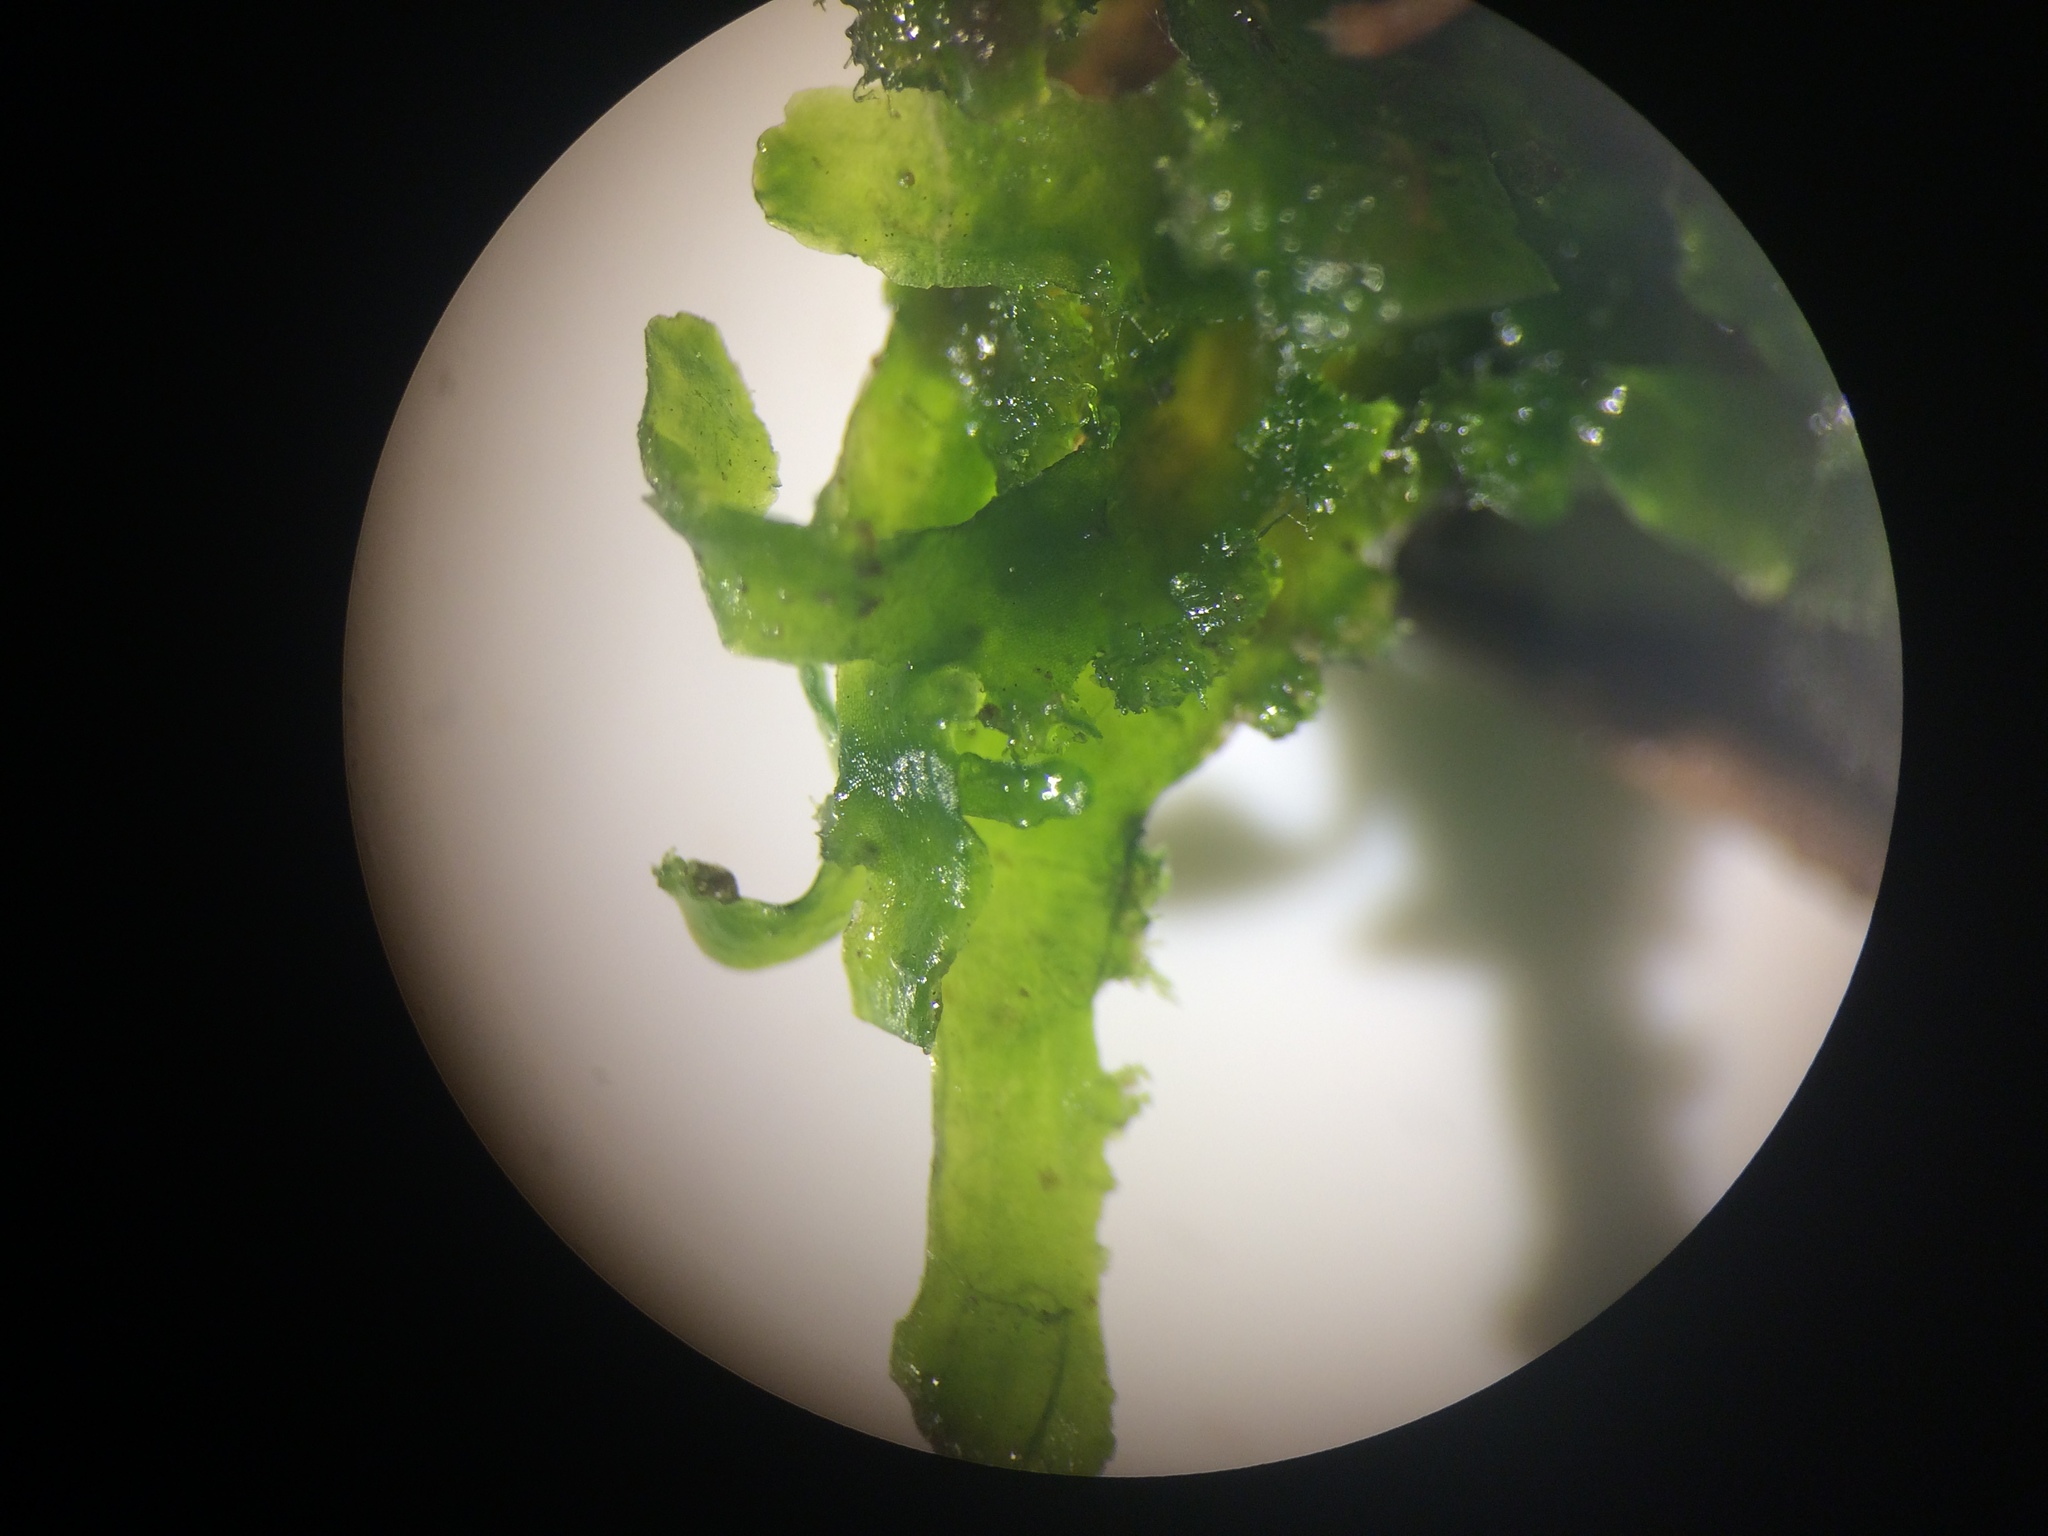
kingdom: Plantae
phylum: Marchantiophyta
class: Jungermanniopsida
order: Metzgeriales
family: Aneuraceae
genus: Aneura
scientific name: Aneura pinguis
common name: Common greasewort
